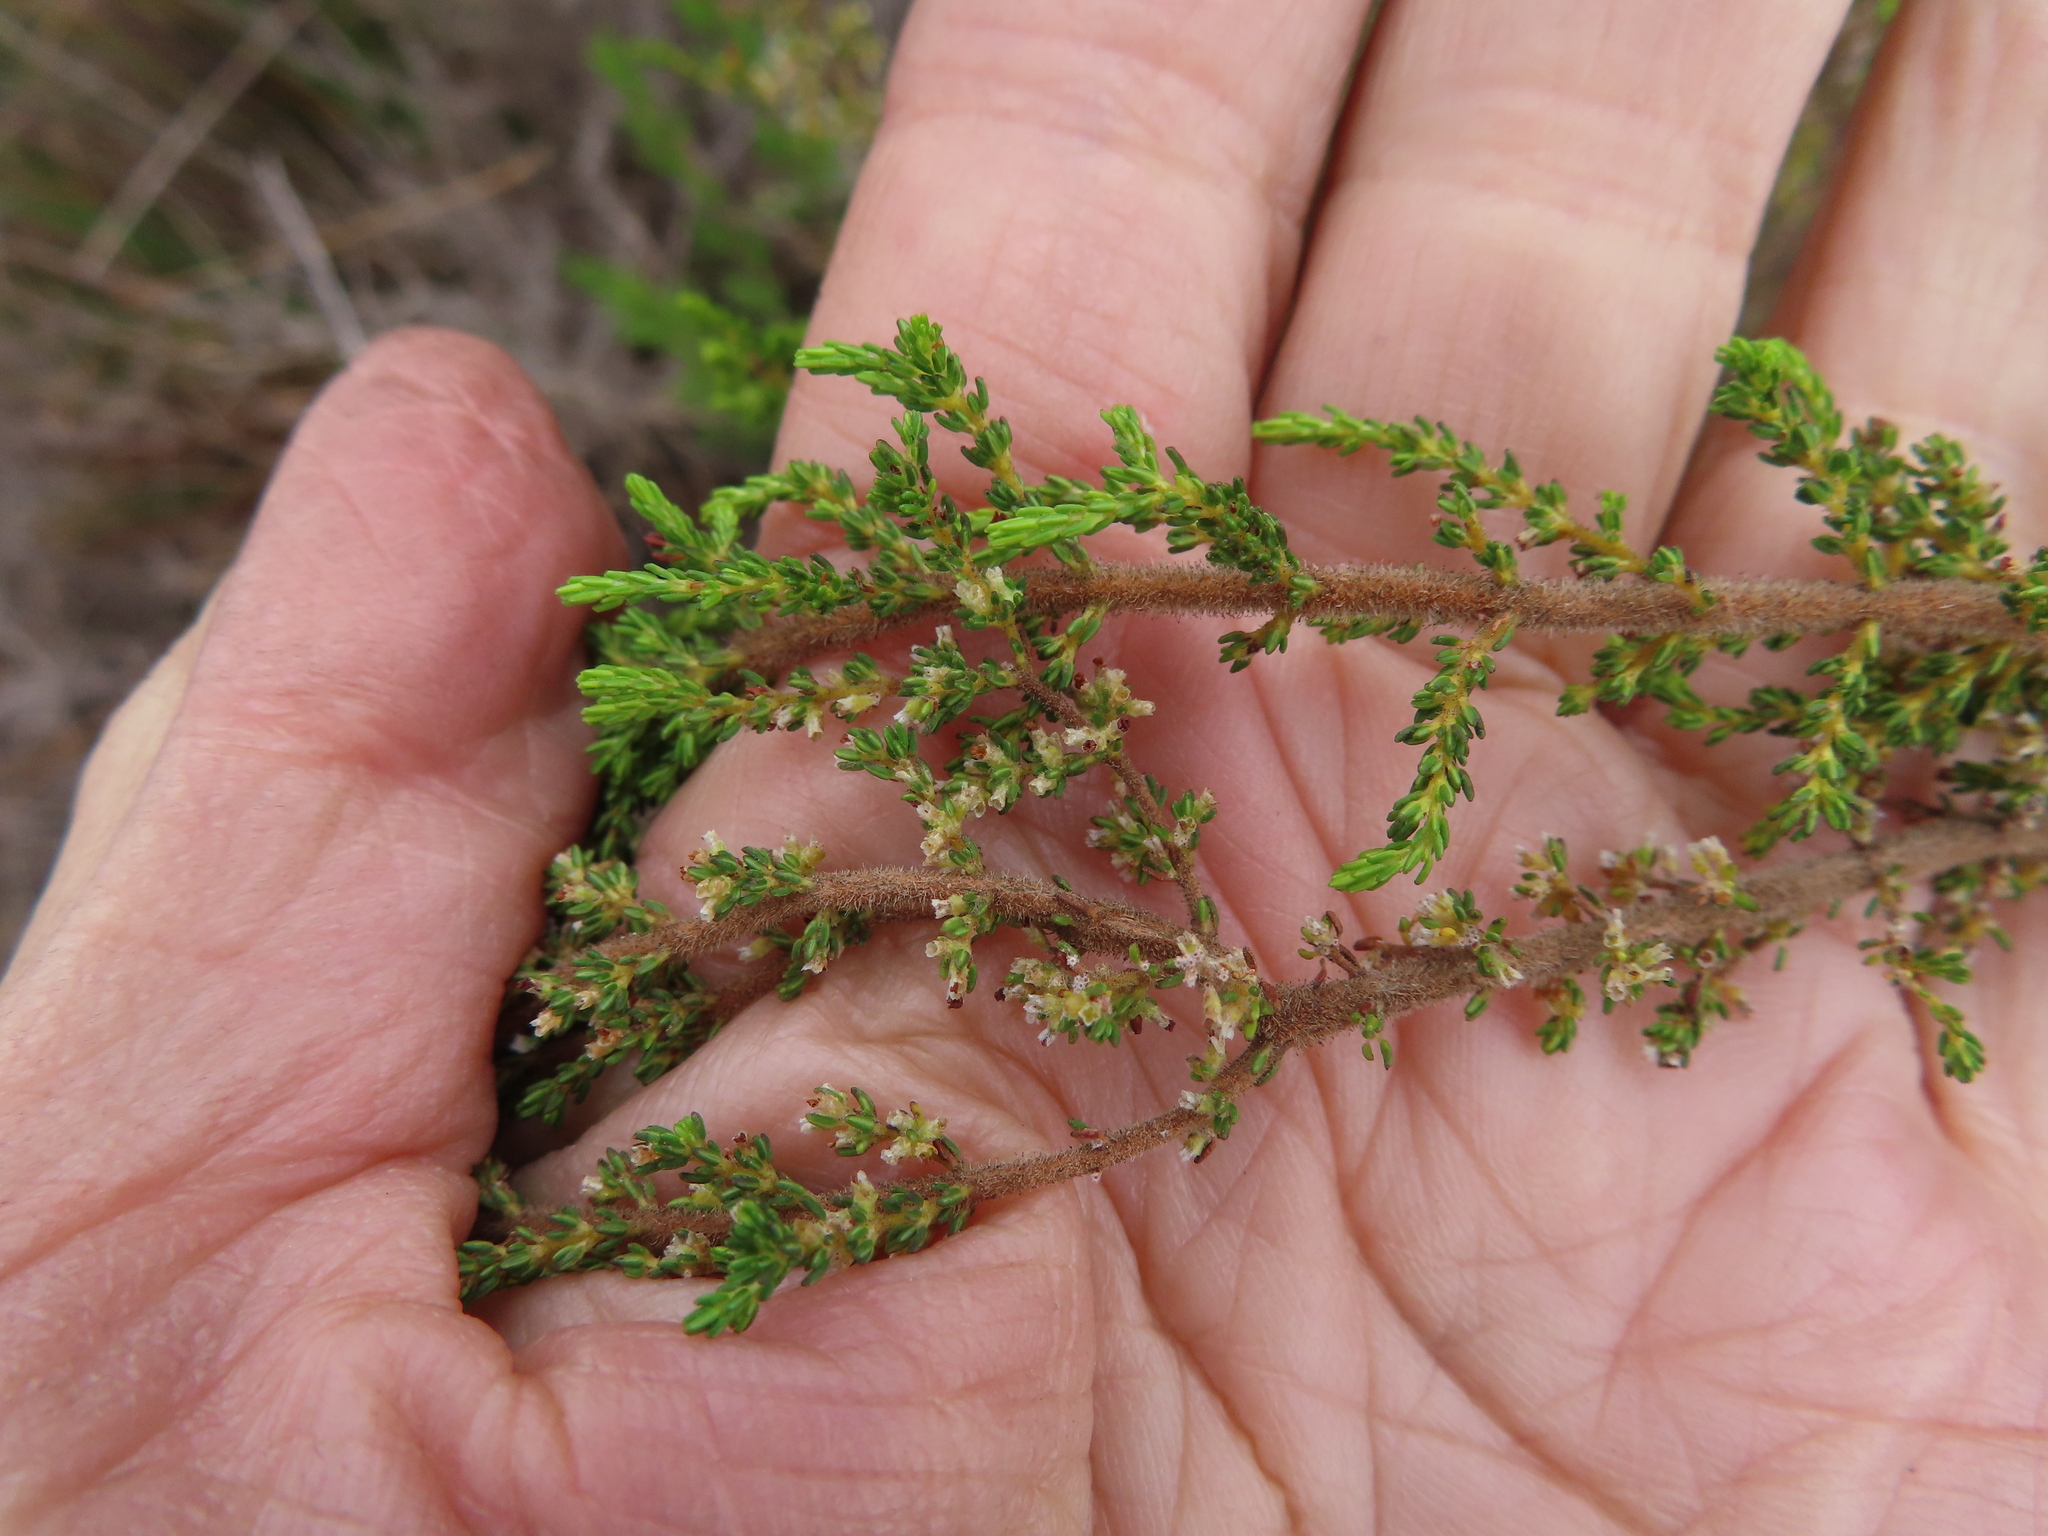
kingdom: Plantae
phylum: Tracheophyta
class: Magnoliopsida
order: Ericales
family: Ericaceae
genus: Erica
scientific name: Erica muscosa
